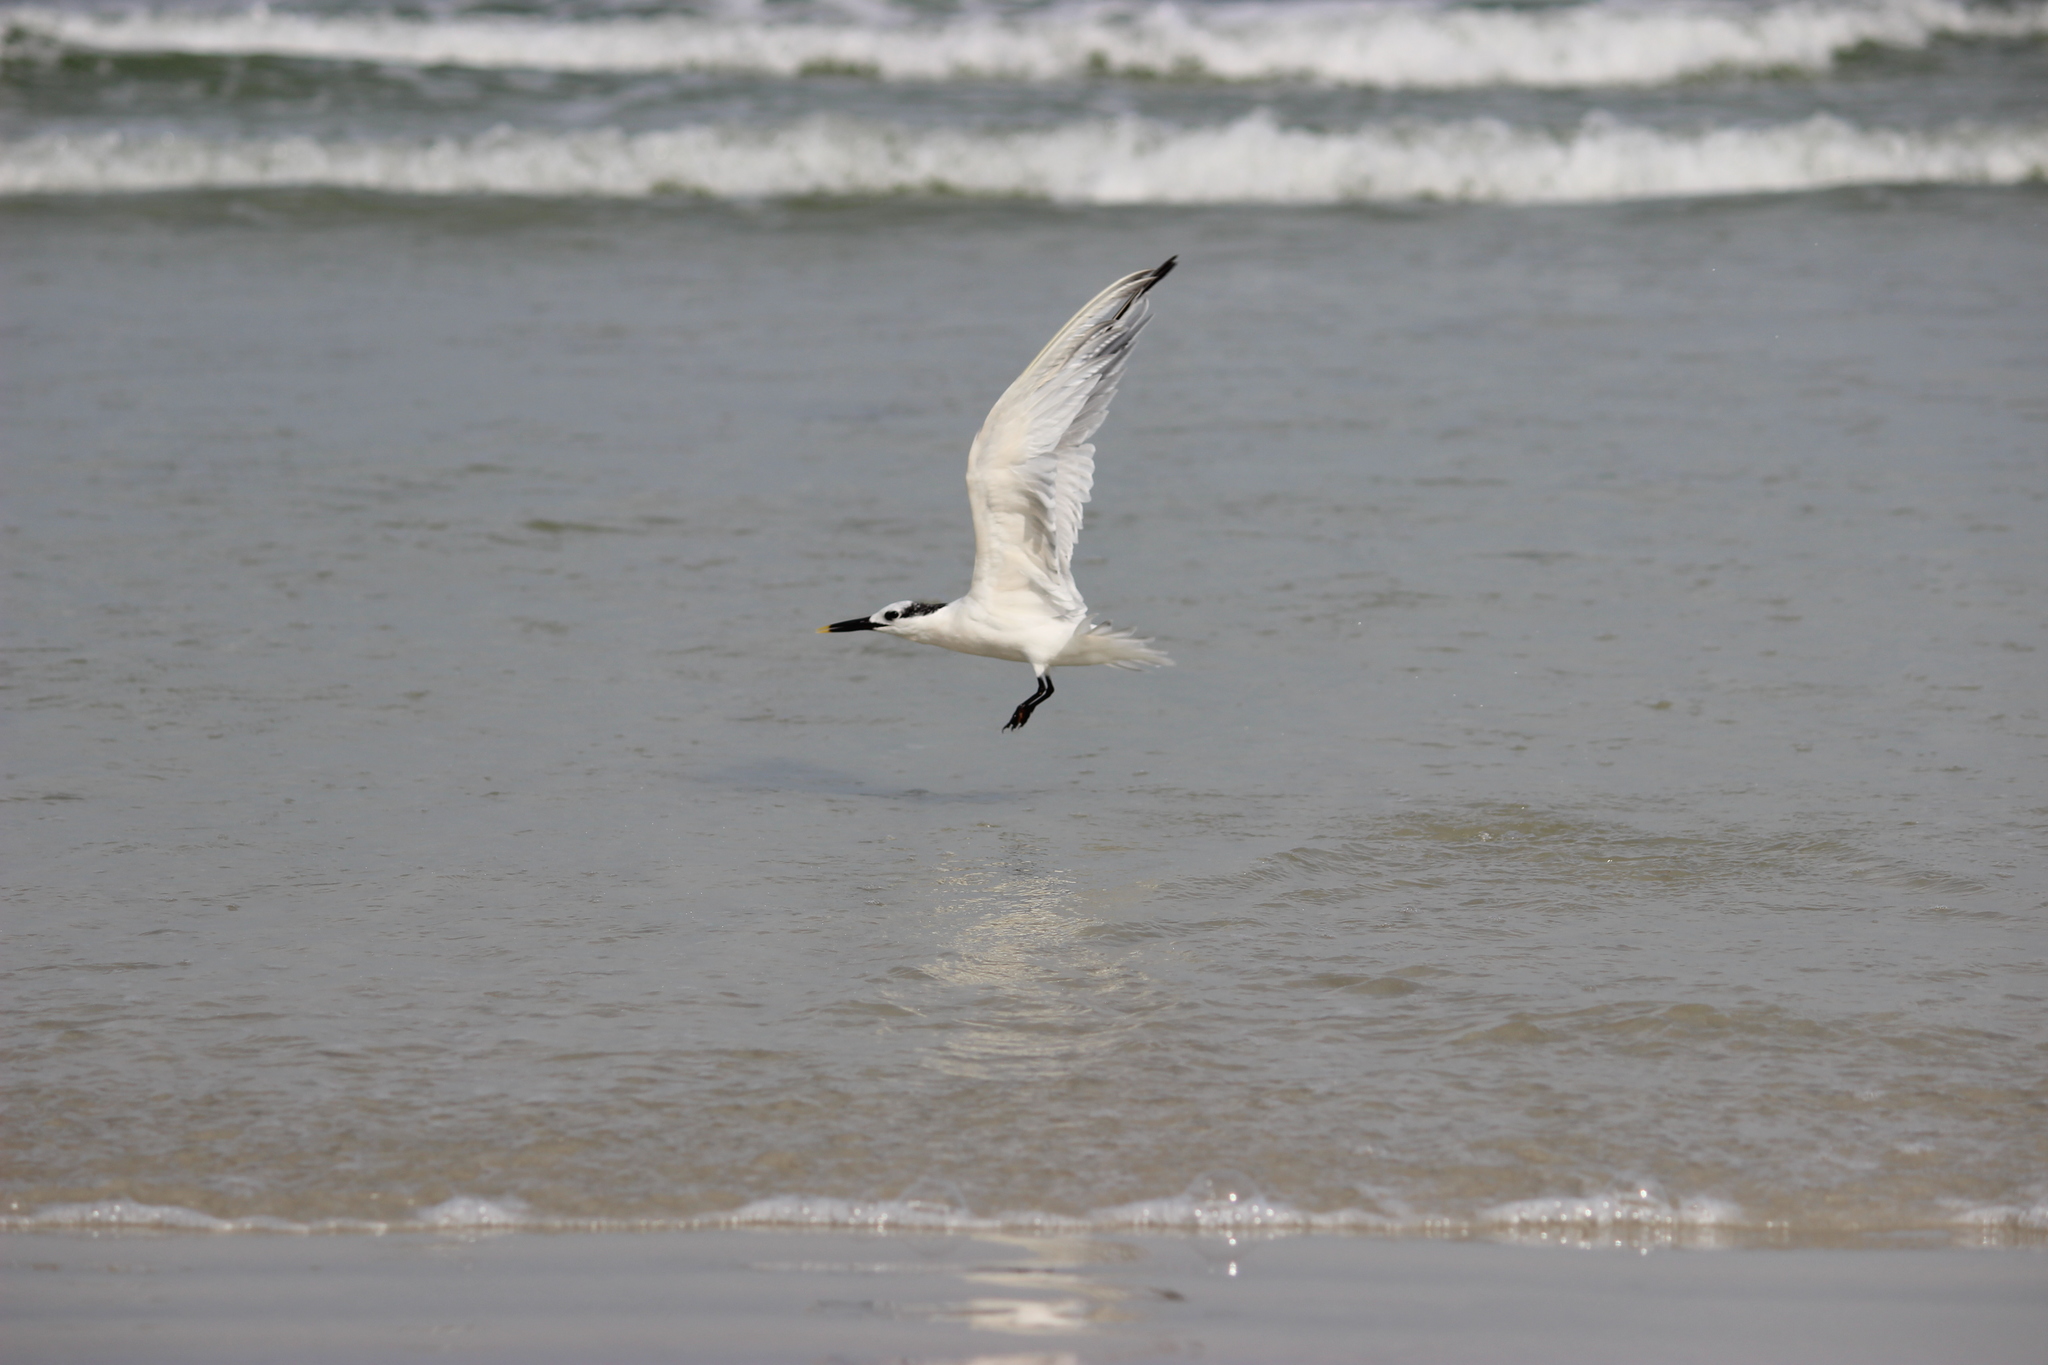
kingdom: Animalia
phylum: Chordata
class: Aves
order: Charadriiformes
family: Laridae
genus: Thalasseus
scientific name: Thalasseus sandvicensis
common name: Sandwich tern
